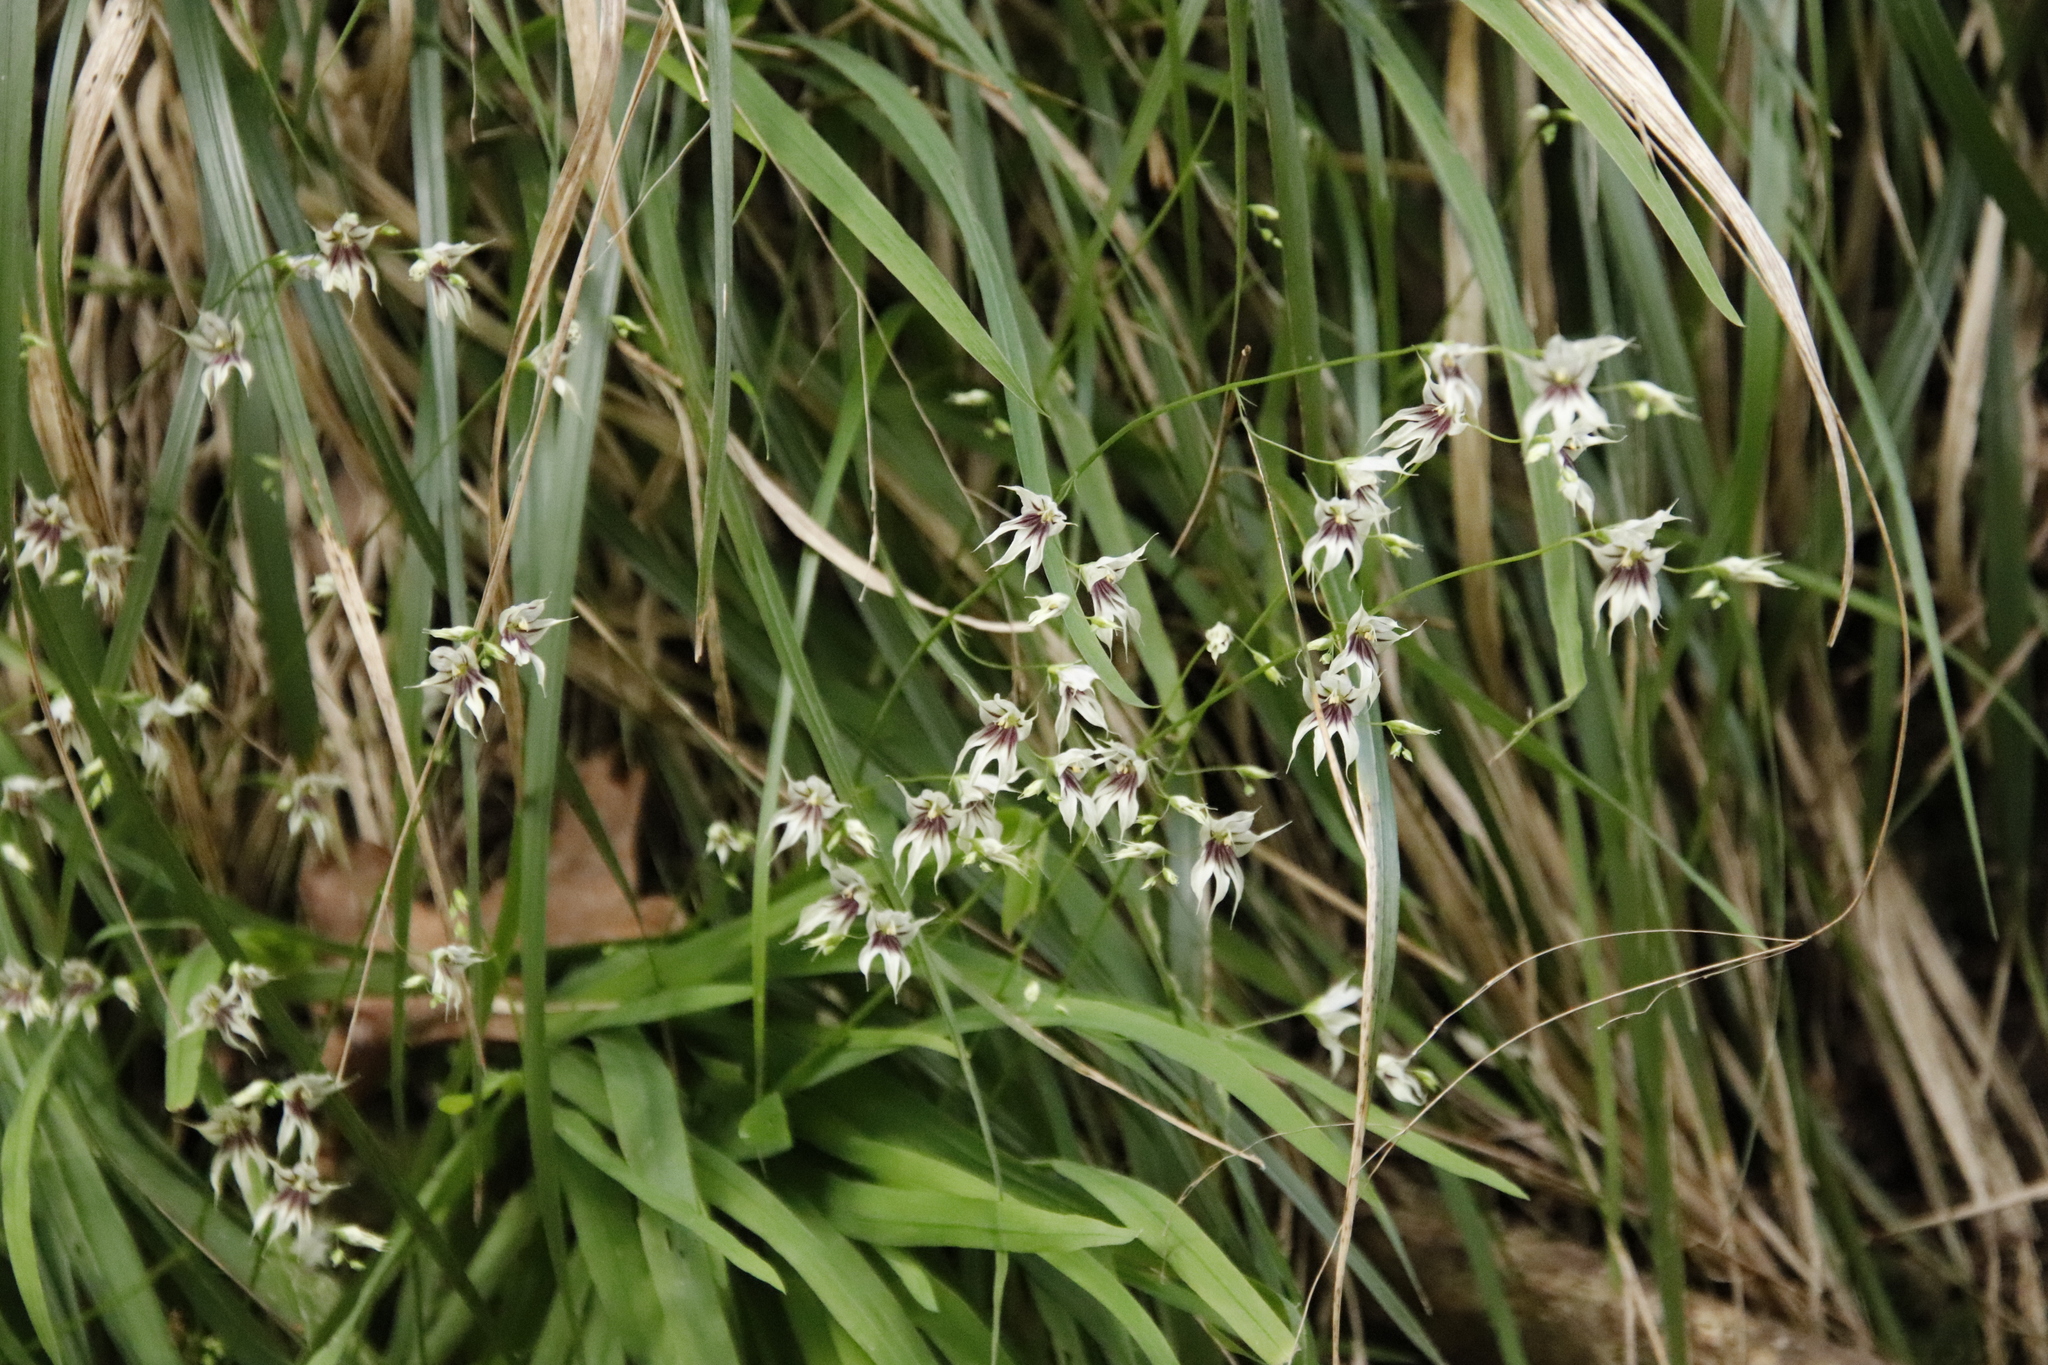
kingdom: Plantae
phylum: Tracheophyta
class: Liliopsida
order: Asparagales
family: Iridaceae
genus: Melasphaerula
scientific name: Melasphaerula graminea
